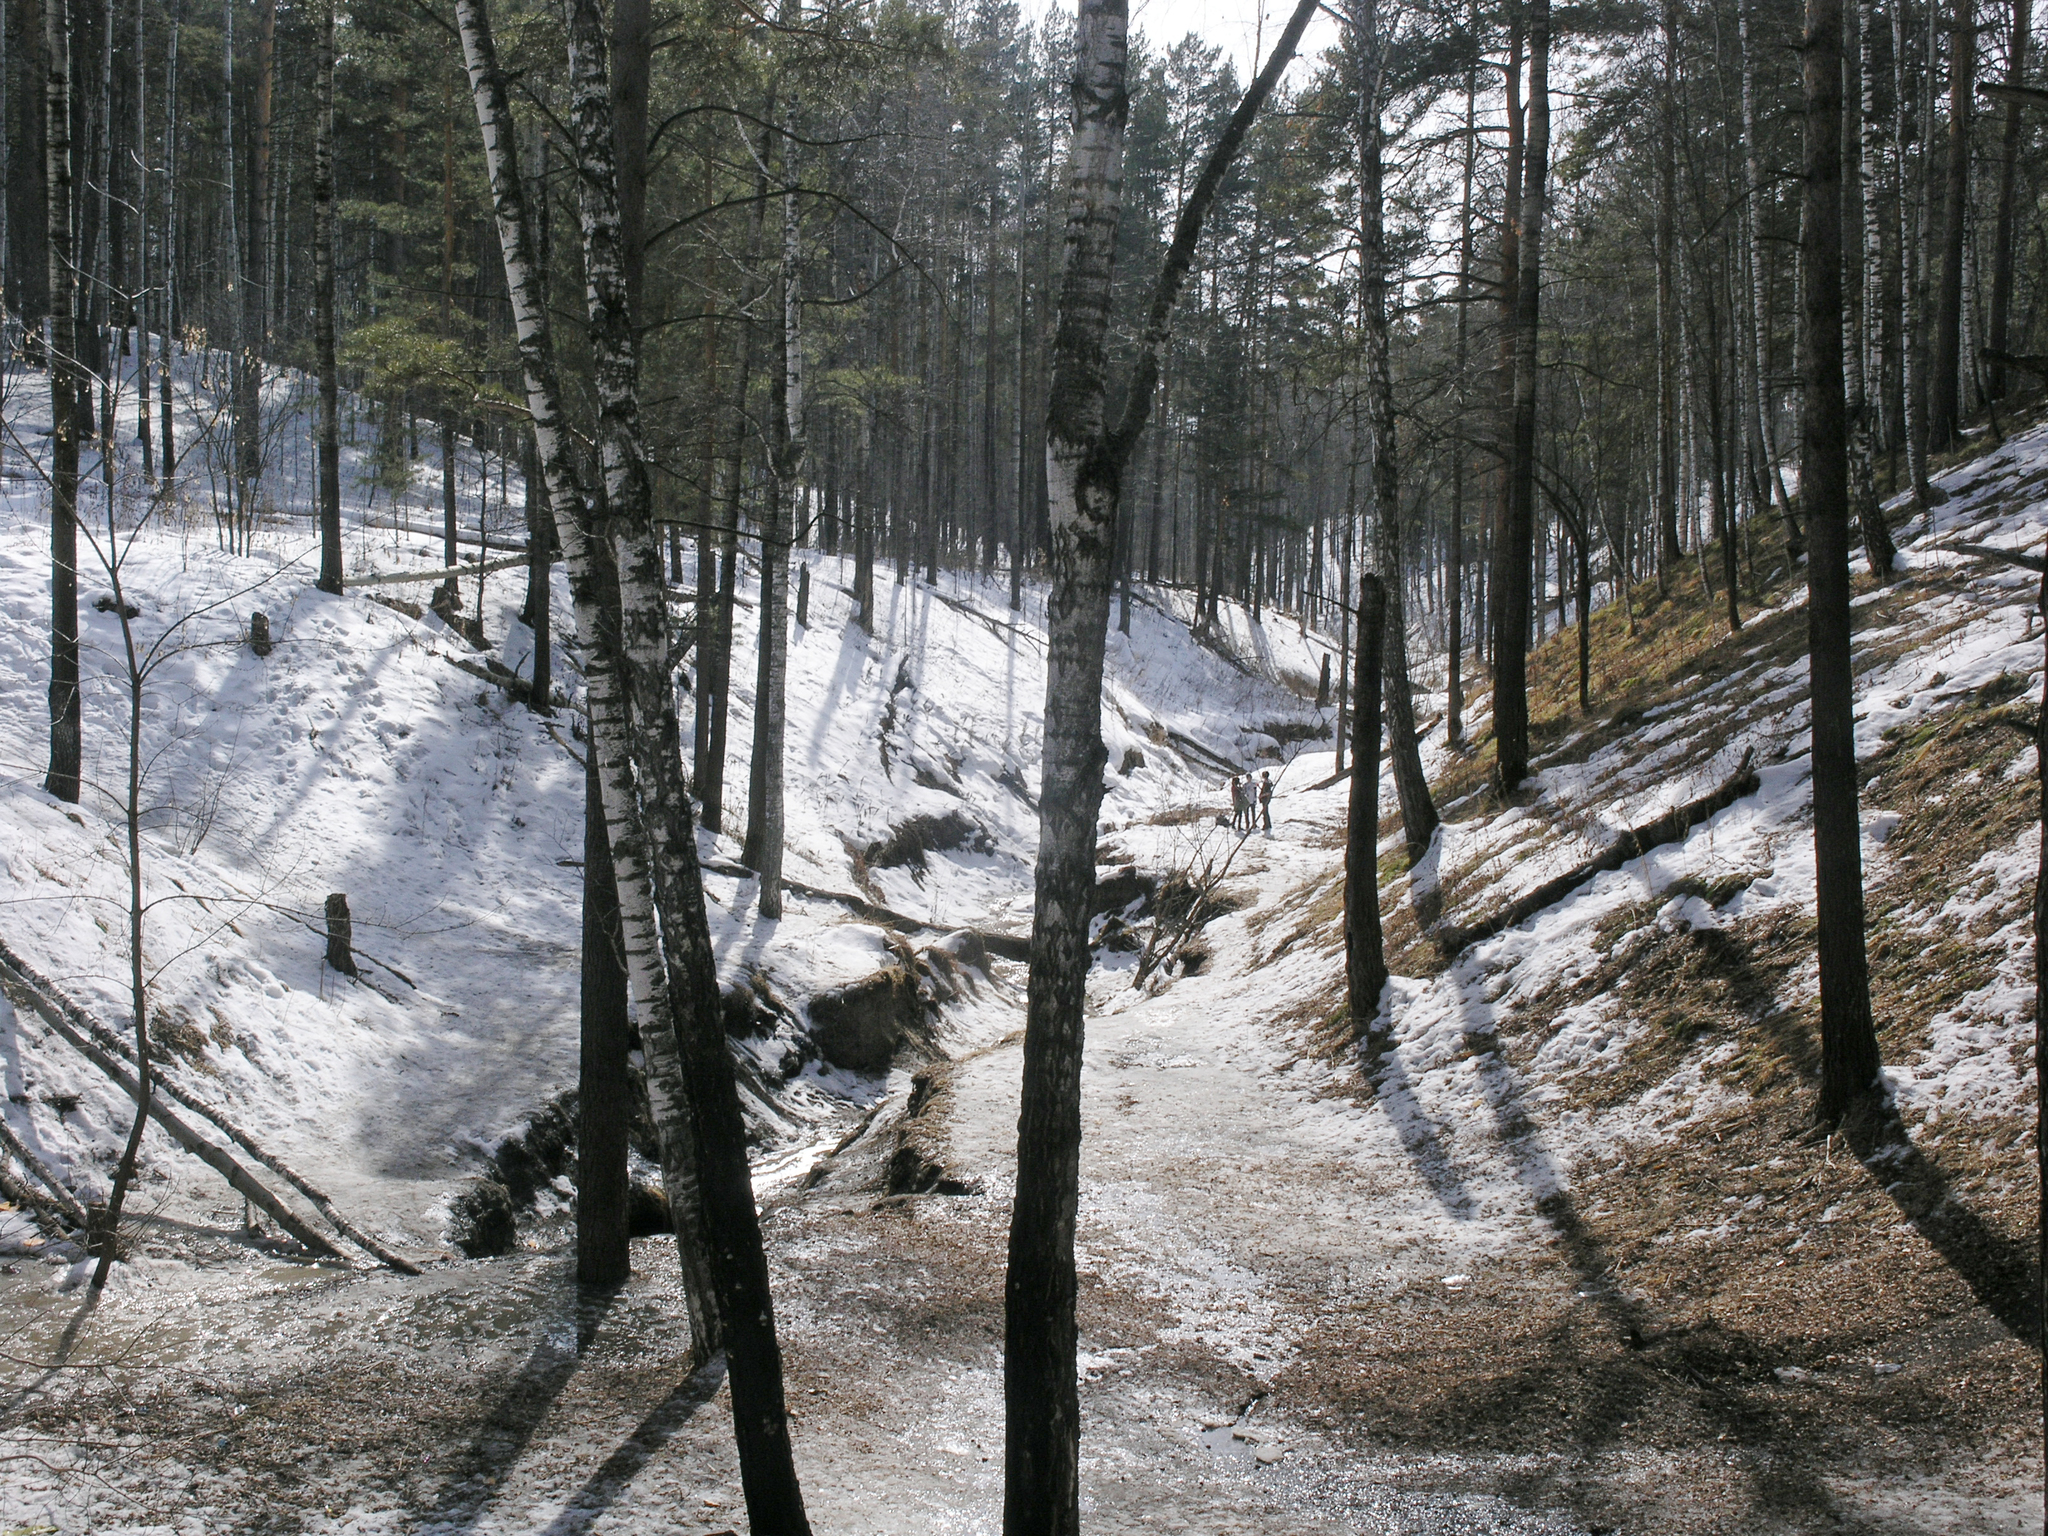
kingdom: Plantae
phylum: Tracheophyta
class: Magnoliopsida
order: Fagales
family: Betulaceae
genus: Betula
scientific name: Betula pendula
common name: Silver birch
